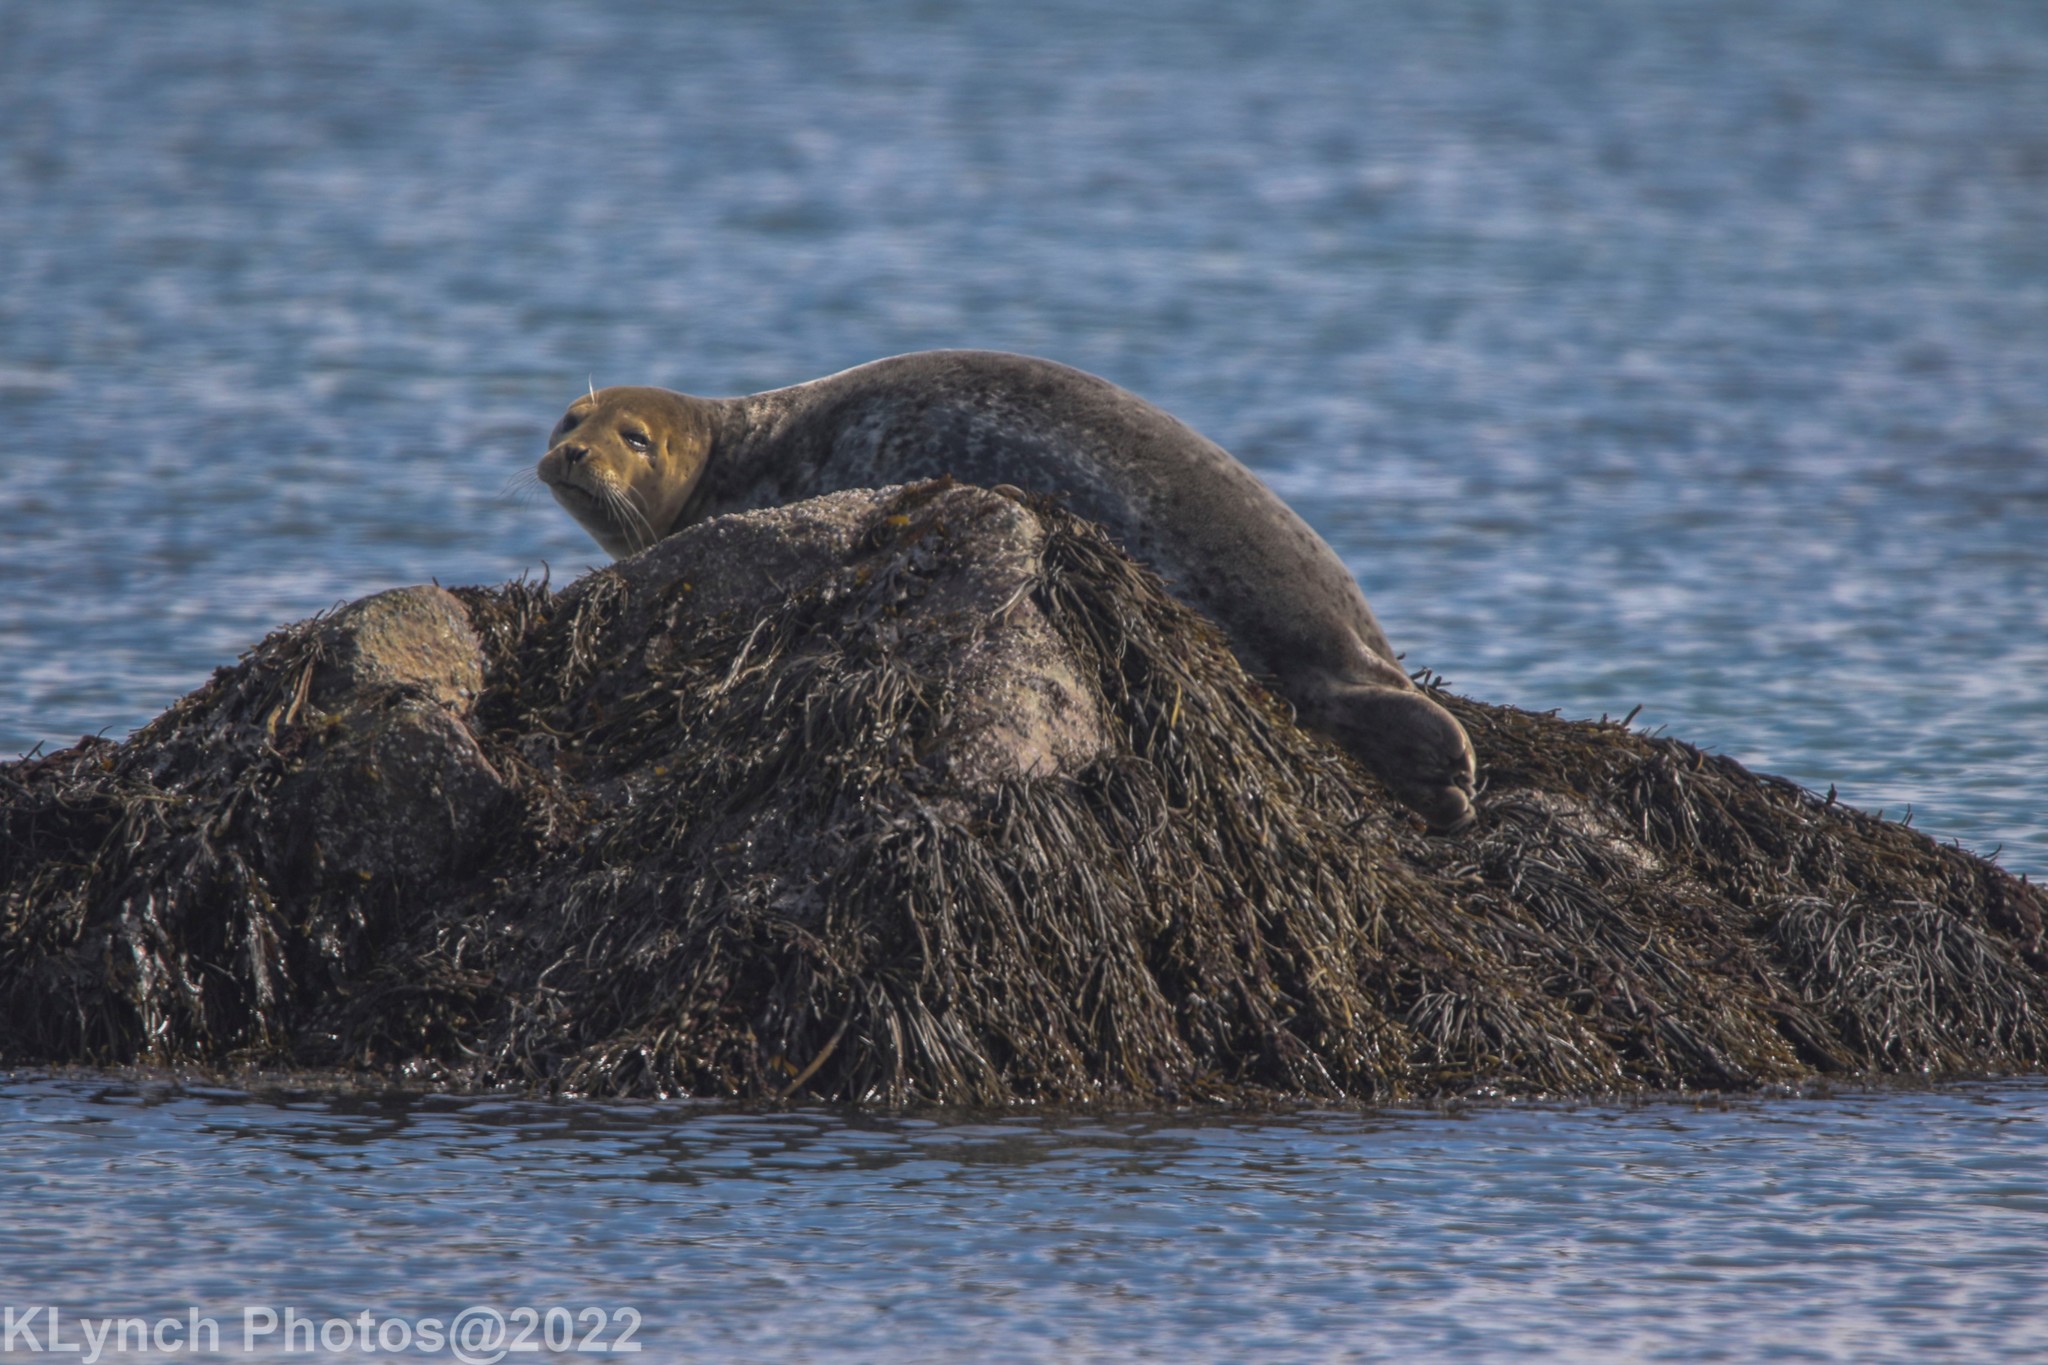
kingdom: Animalia
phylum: Chordata
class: Mammalia
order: Carnivora
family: Phocidae
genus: Phoca
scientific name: Phoca vitulina
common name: Harbor seal
